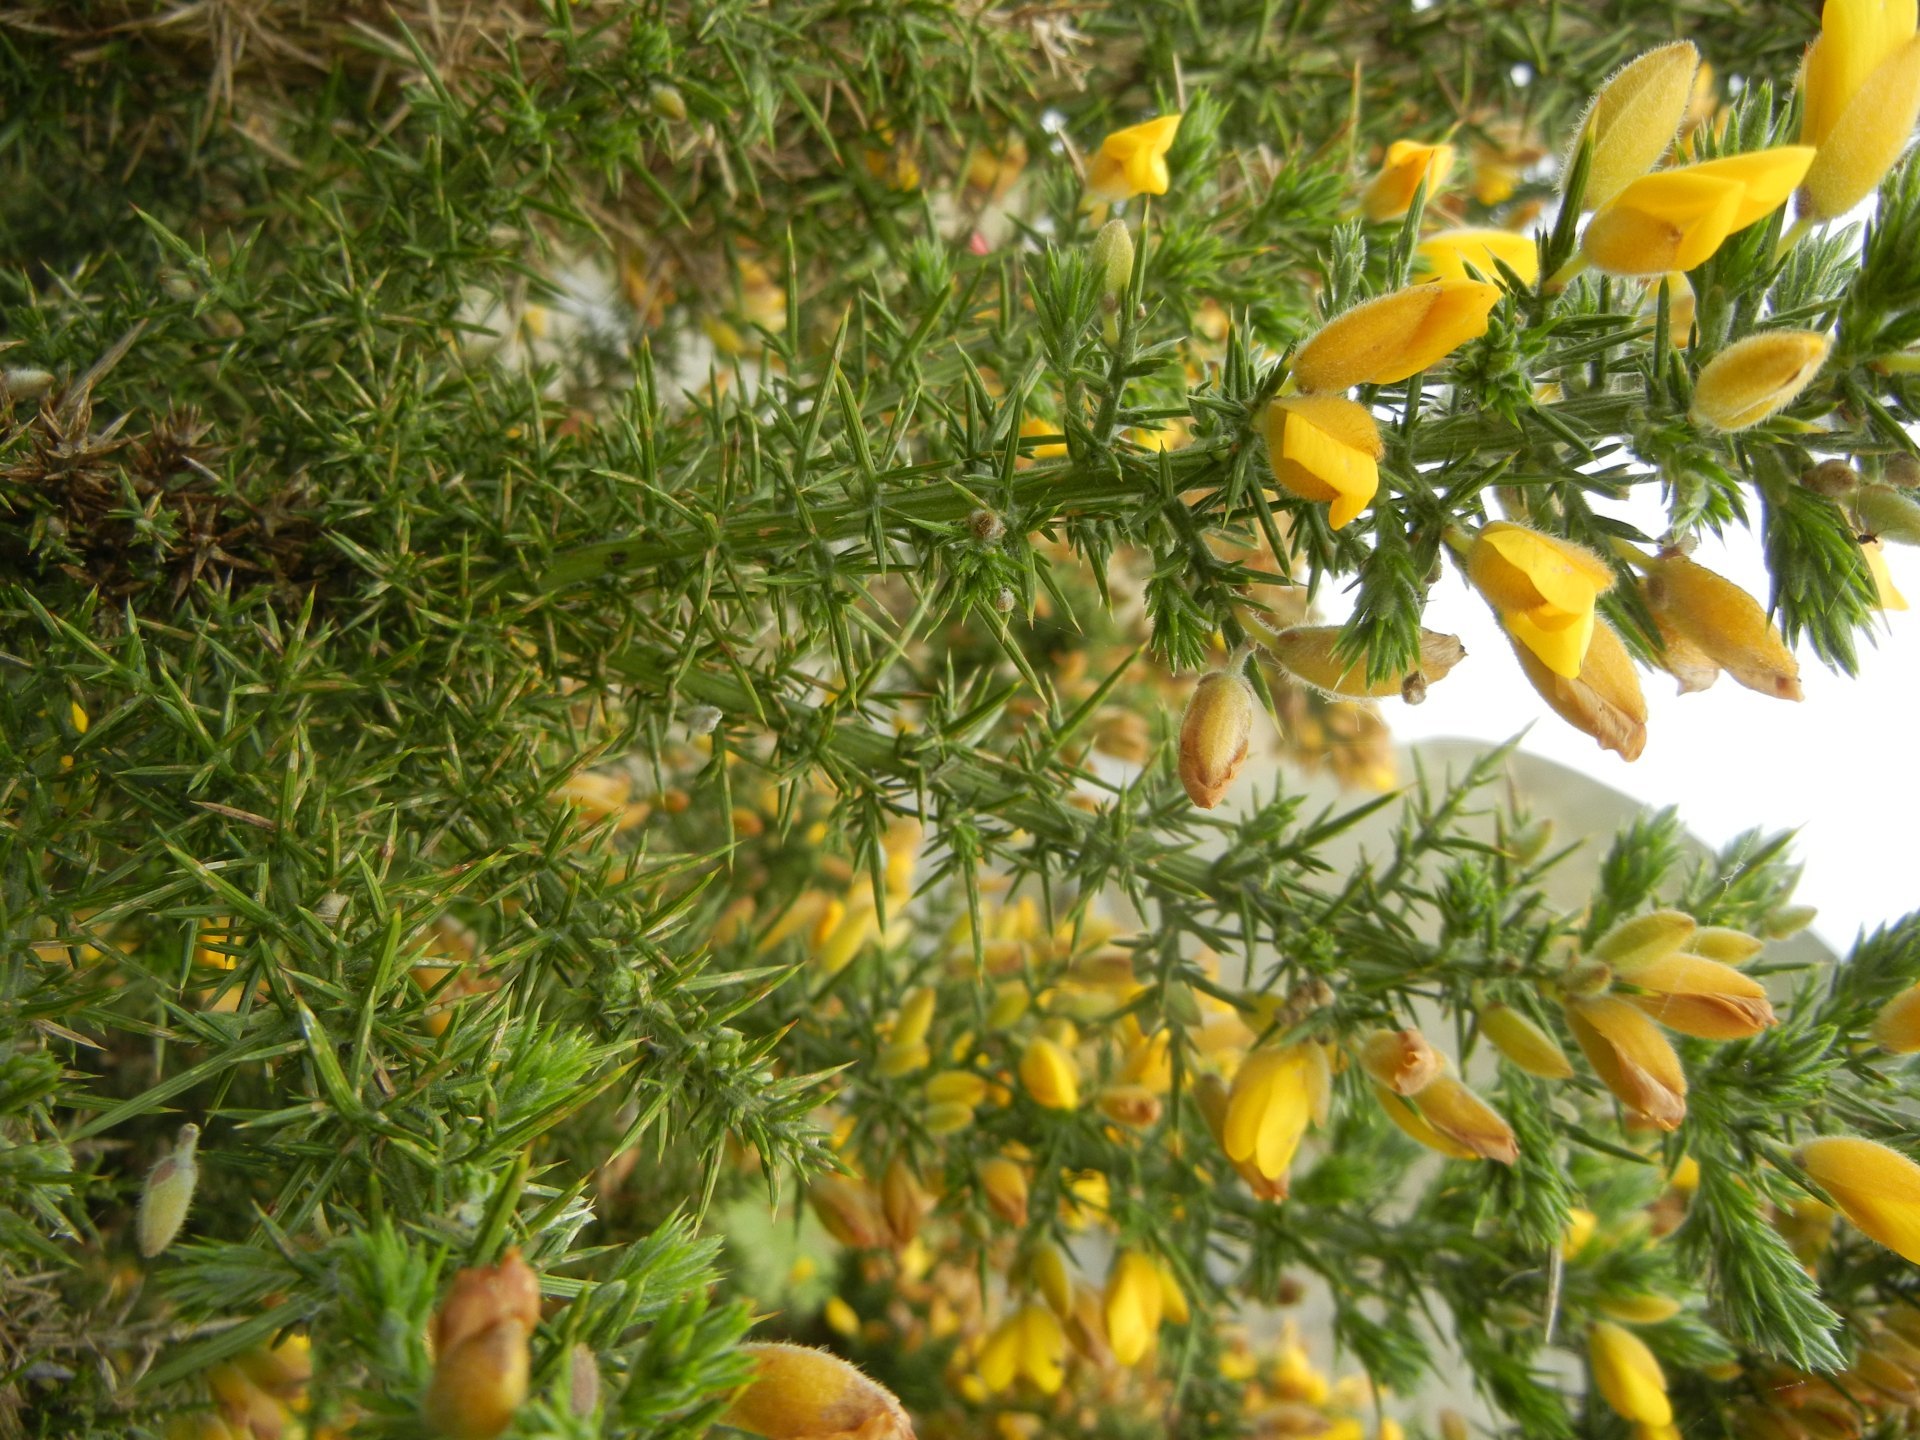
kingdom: Plantae
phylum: Tracheophyta
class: Magnoliopsida
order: Fabales
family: Fabaceae
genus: Ulex
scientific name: Ulex europaeus
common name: Common gorse
